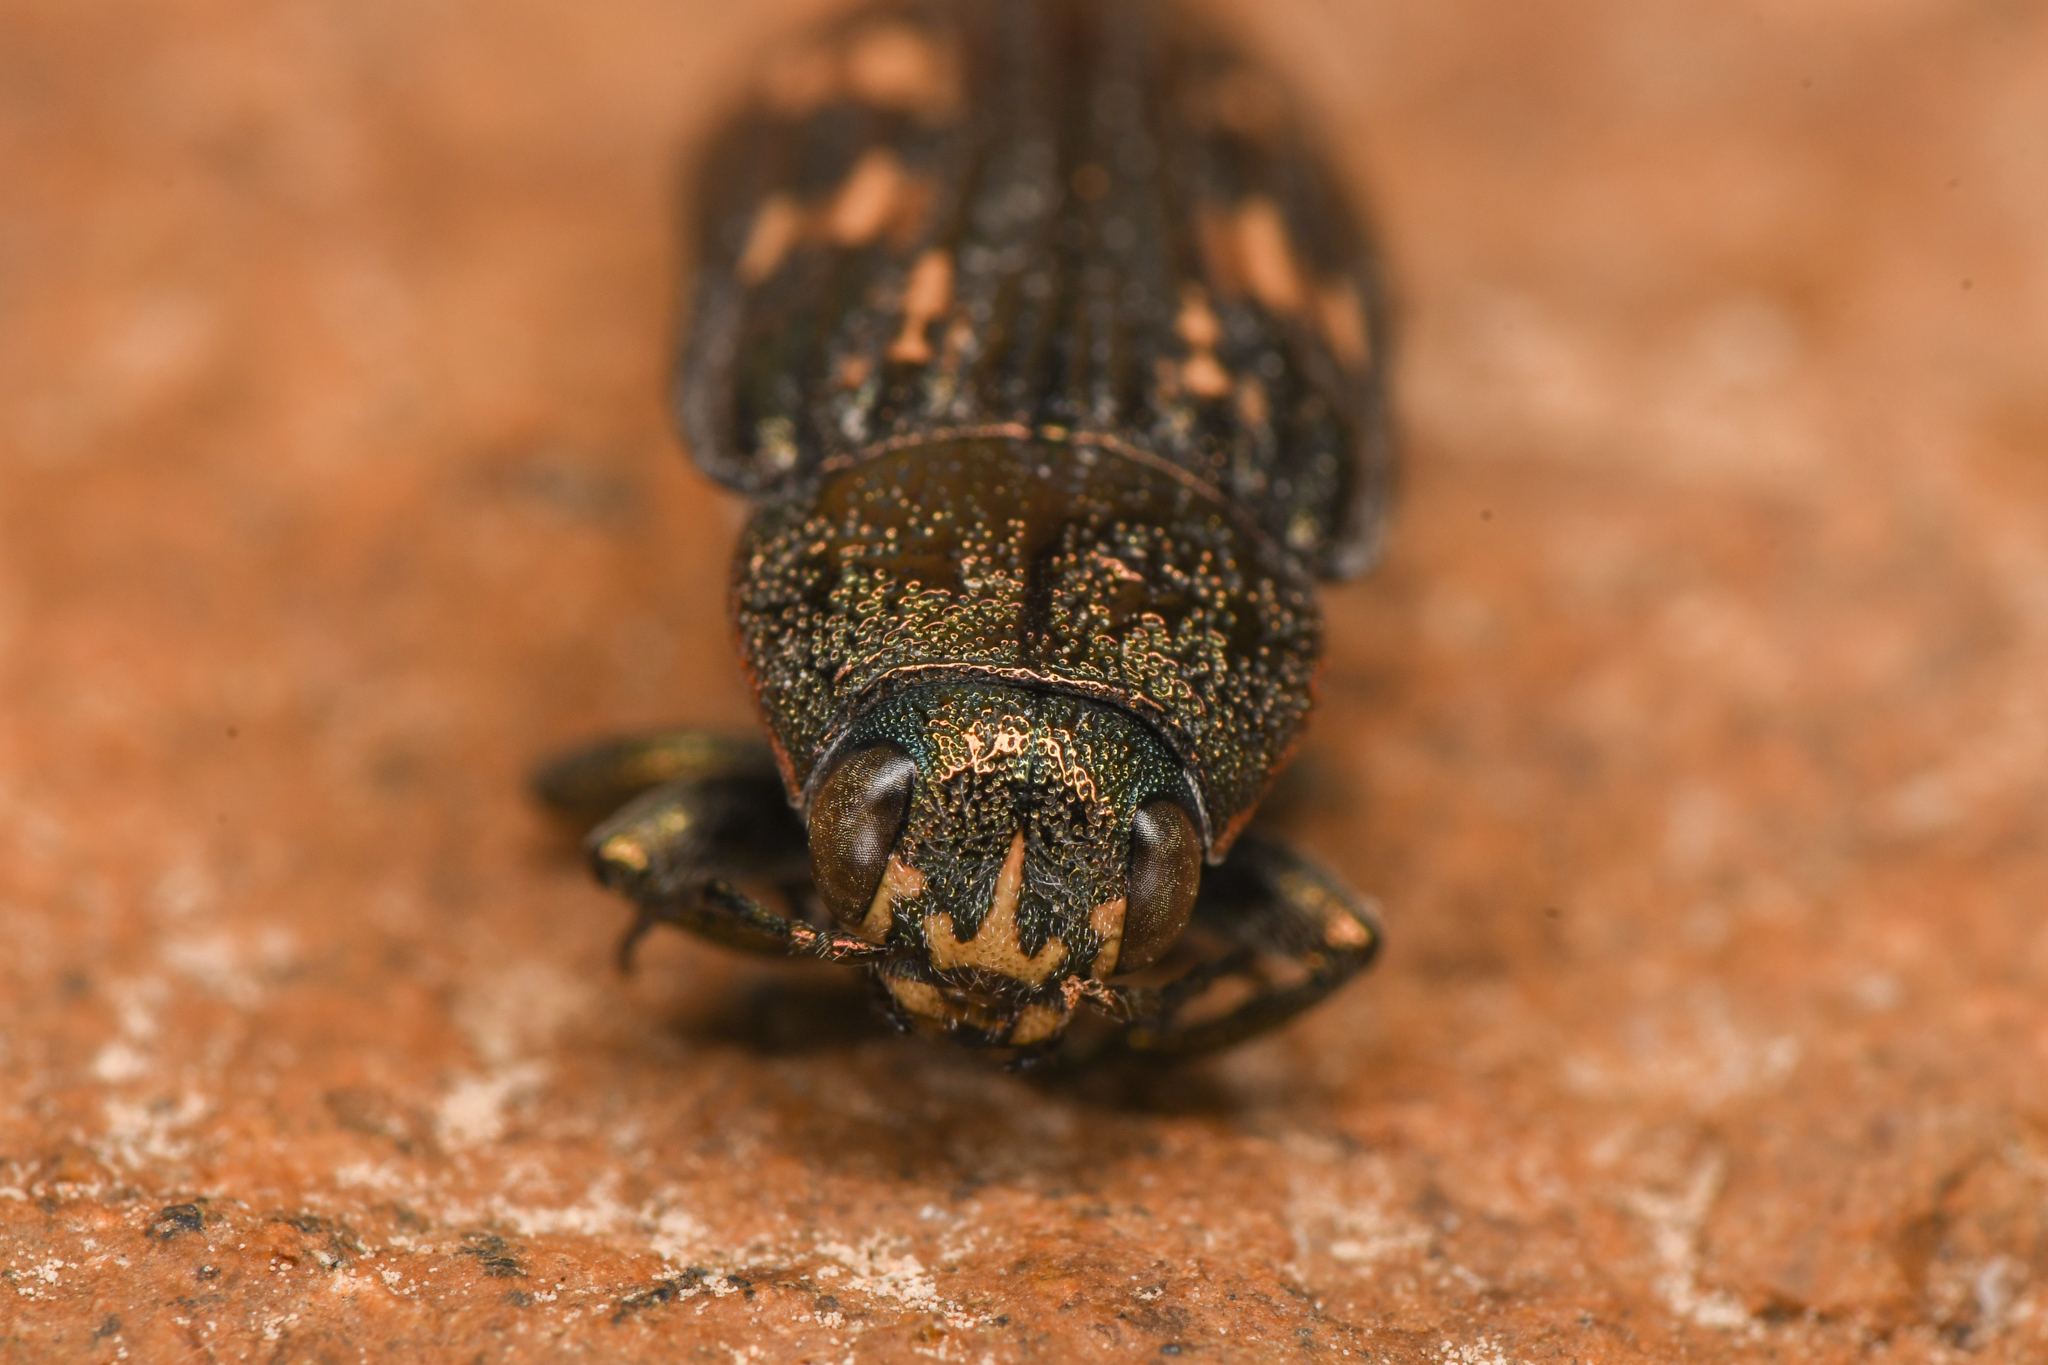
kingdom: Animalia
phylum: Arthropoda
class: Insecta
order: Coleoptera
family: Buprestidae
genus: Buprestis
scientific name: Buprestis nutalli
